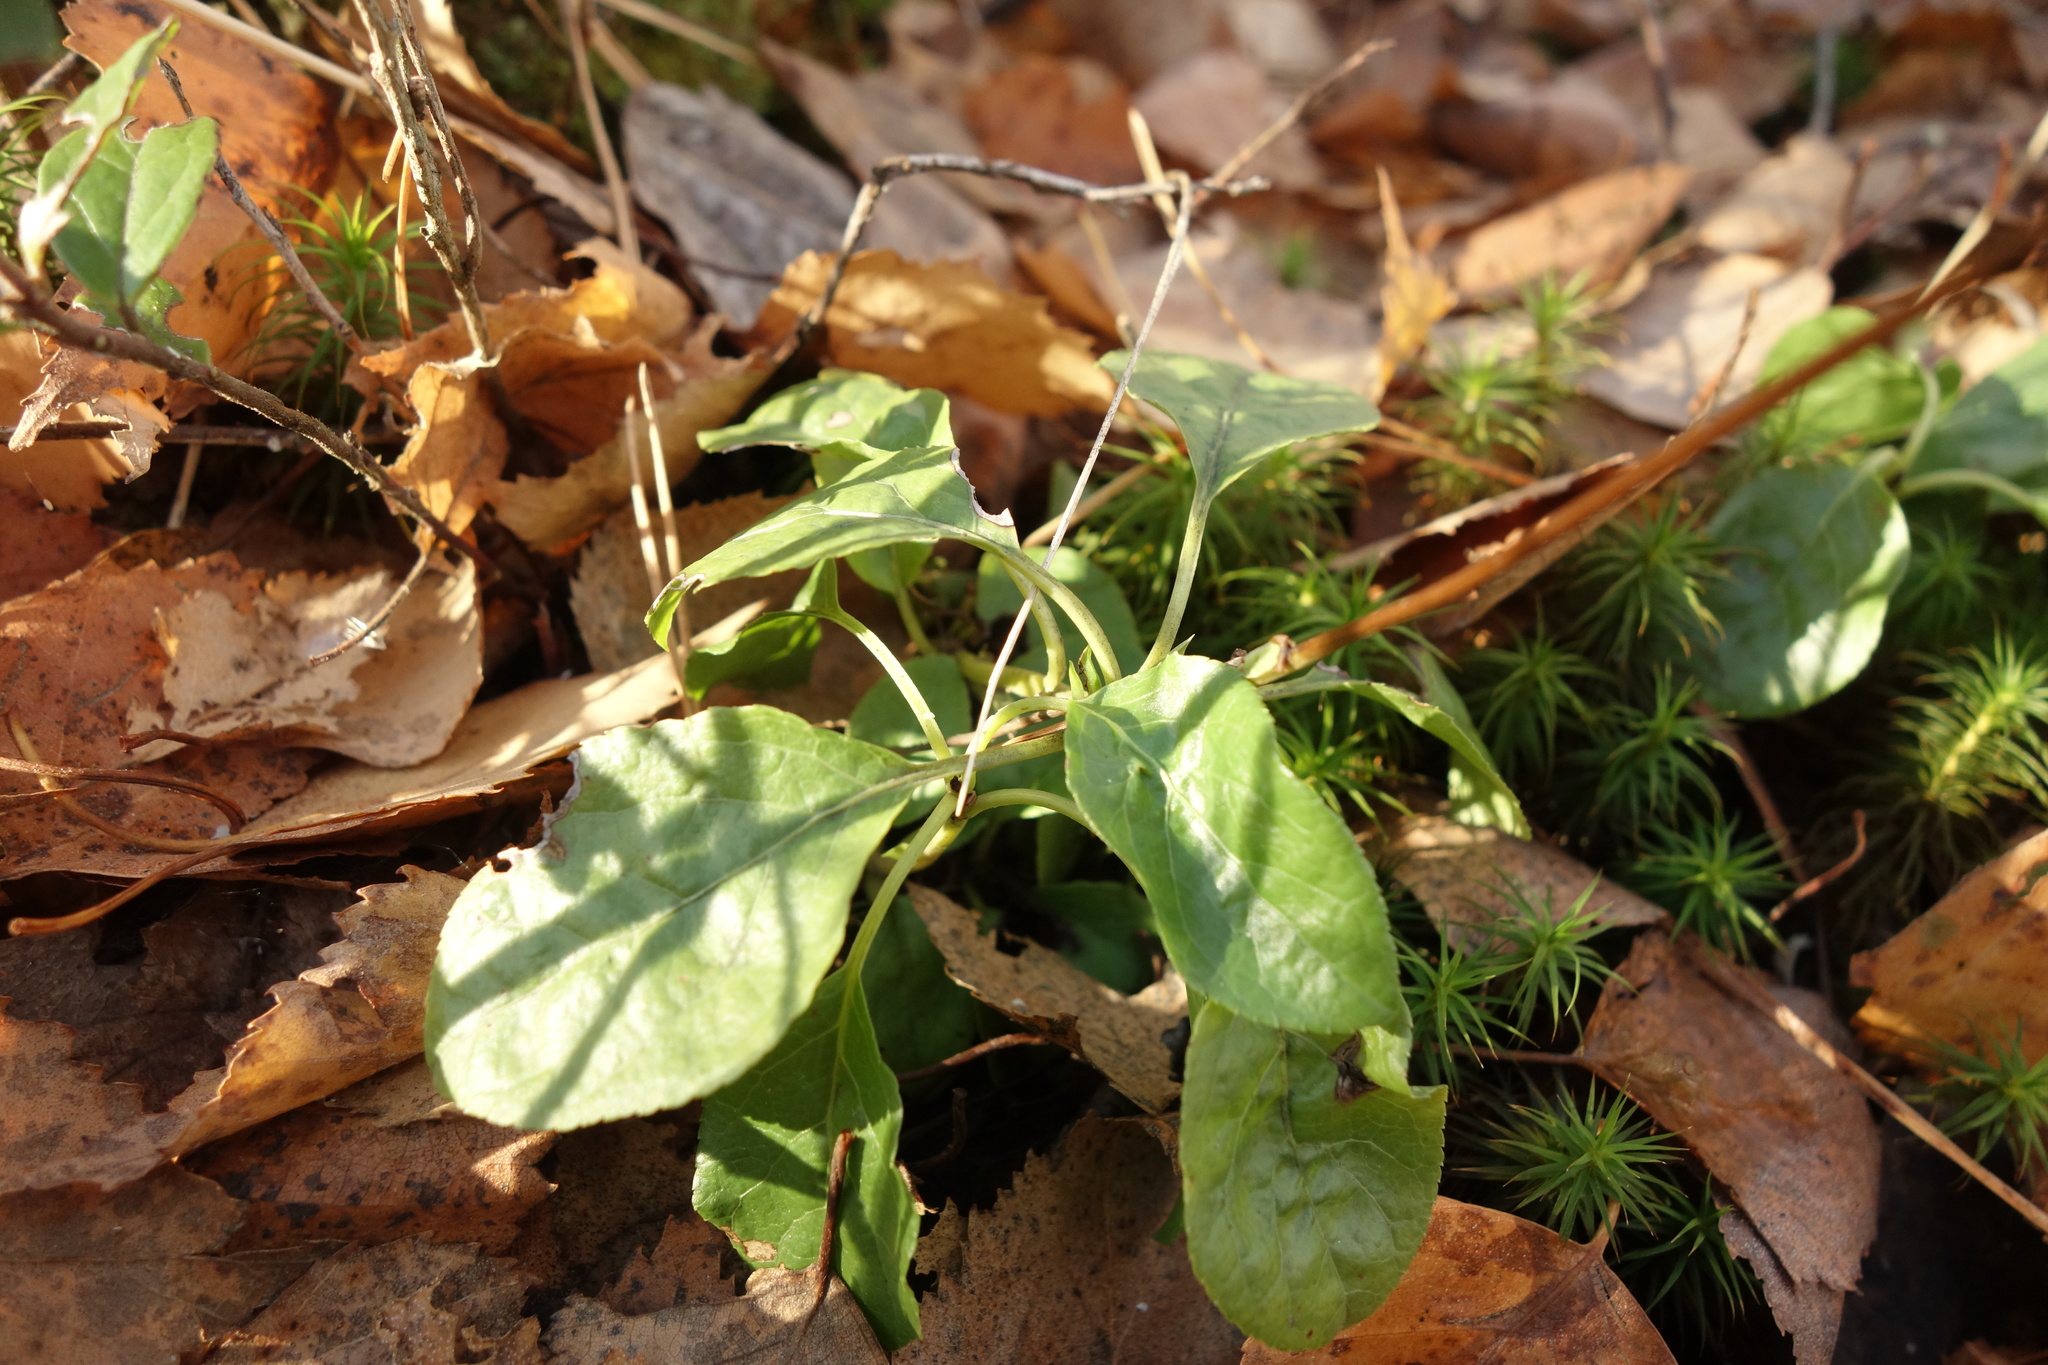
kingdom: Plantae
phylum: Tracheophyta
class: Magnoliopsida
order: Ericales
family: Ericaceae
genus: Orthilia
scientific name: Orthilia secunda
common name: One-sided orthilia
